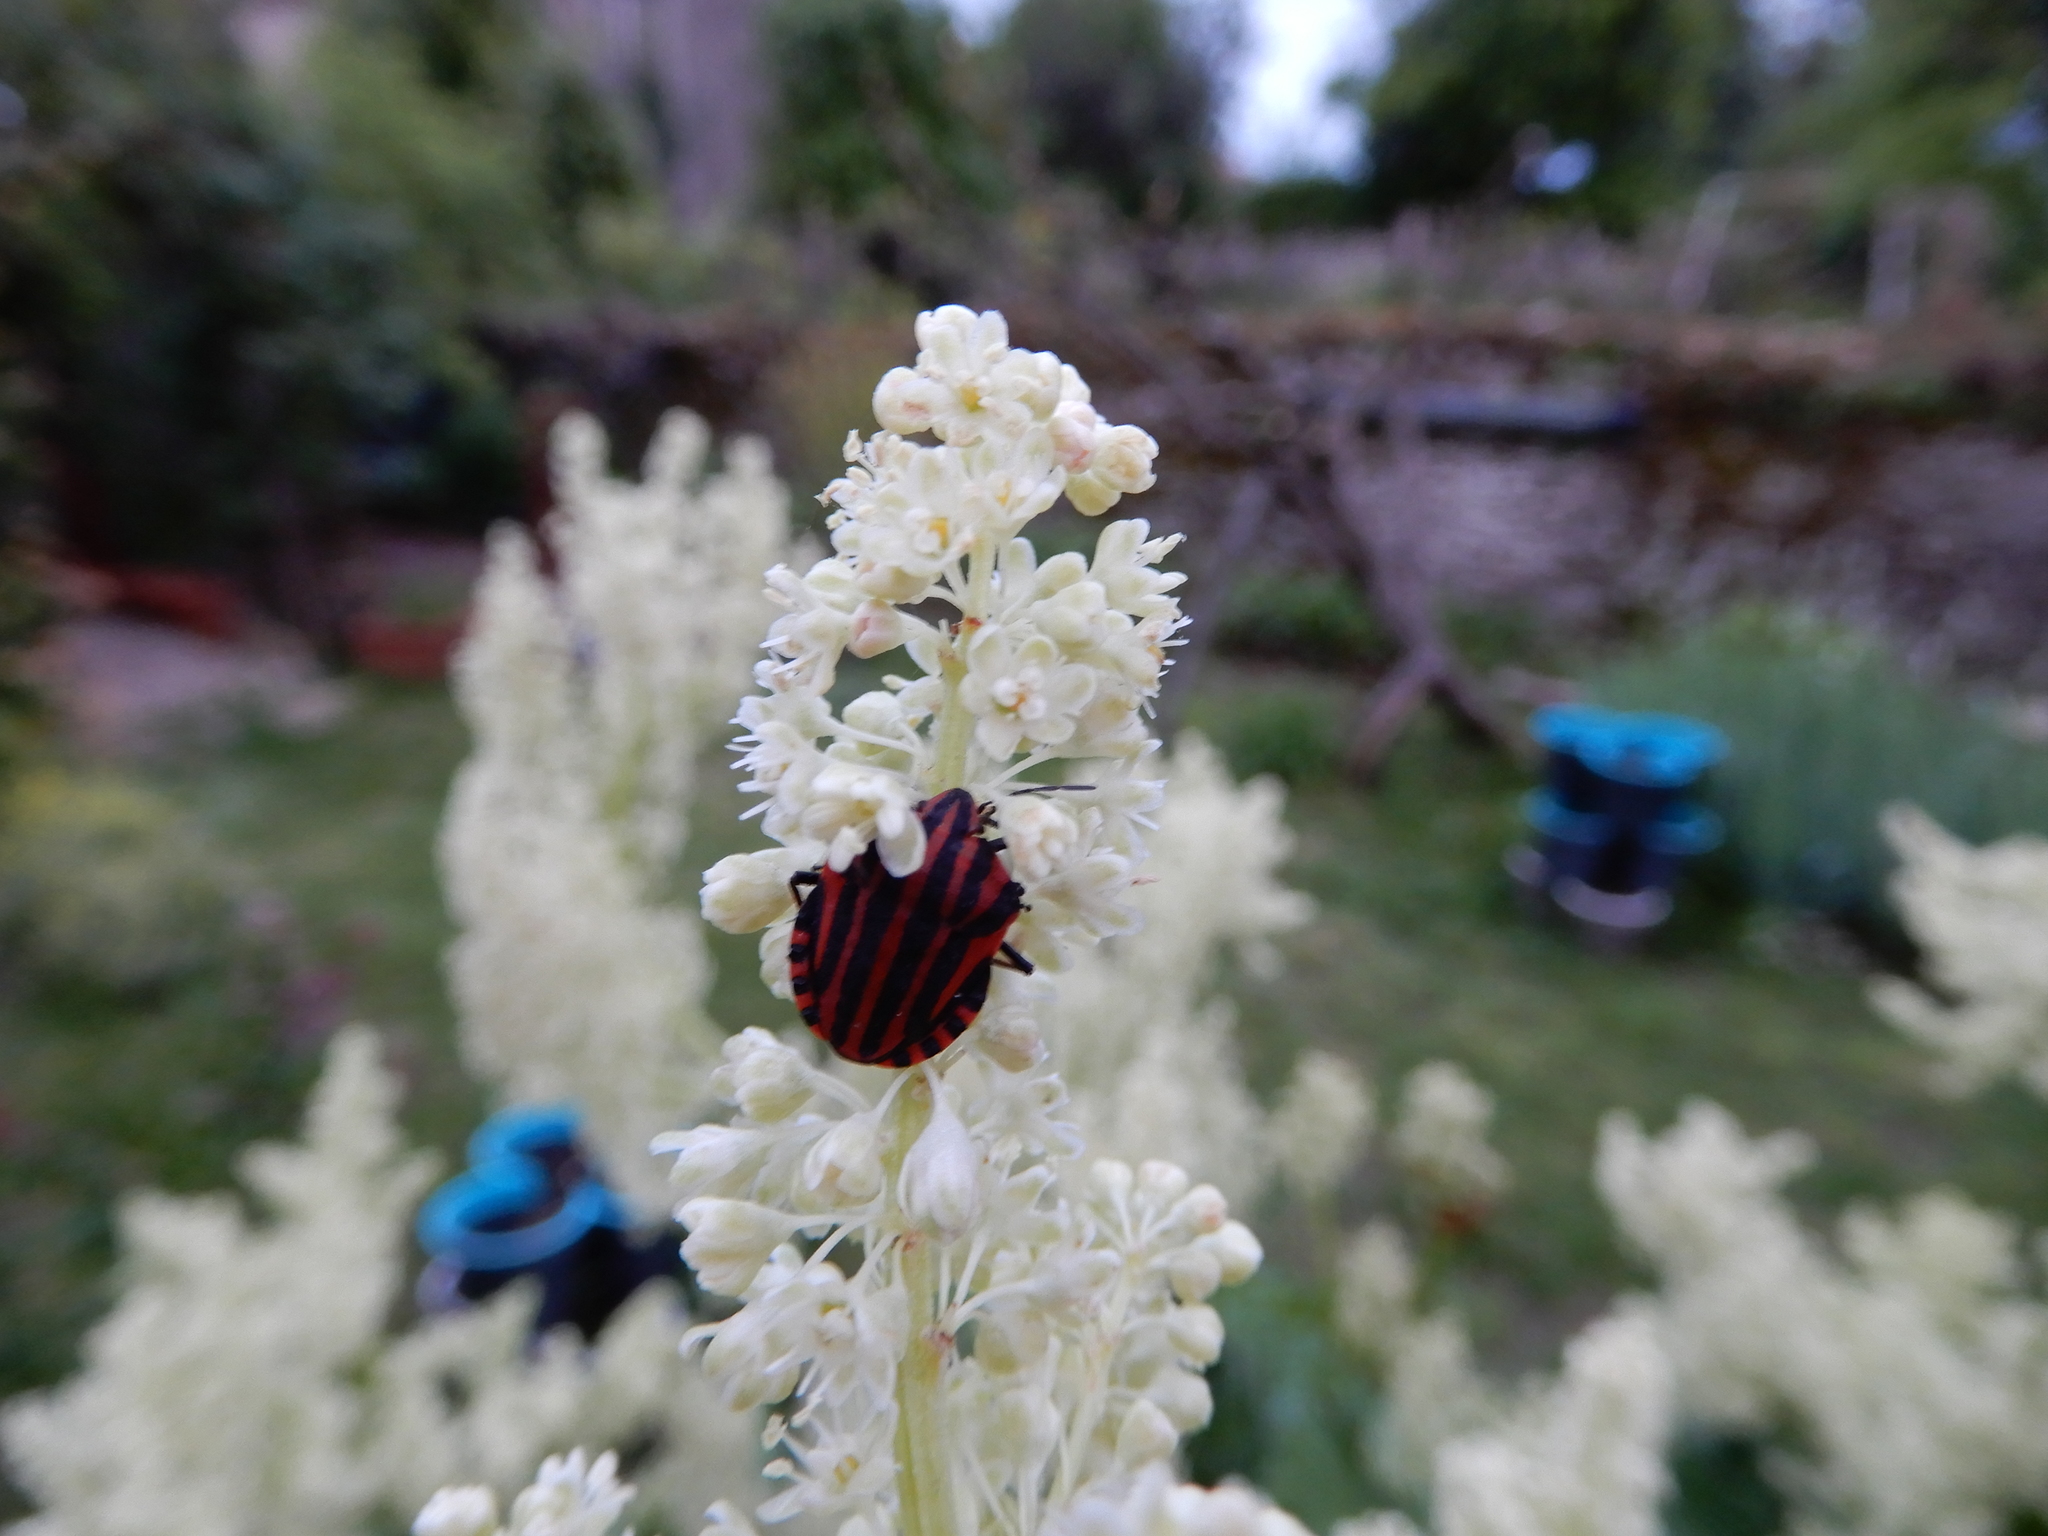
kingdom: Animalia
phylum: Arthropoda
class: Insecta
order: Hemiptera
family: Pentatomidae
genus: Graphosoma
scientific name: Graphosoma italicum
